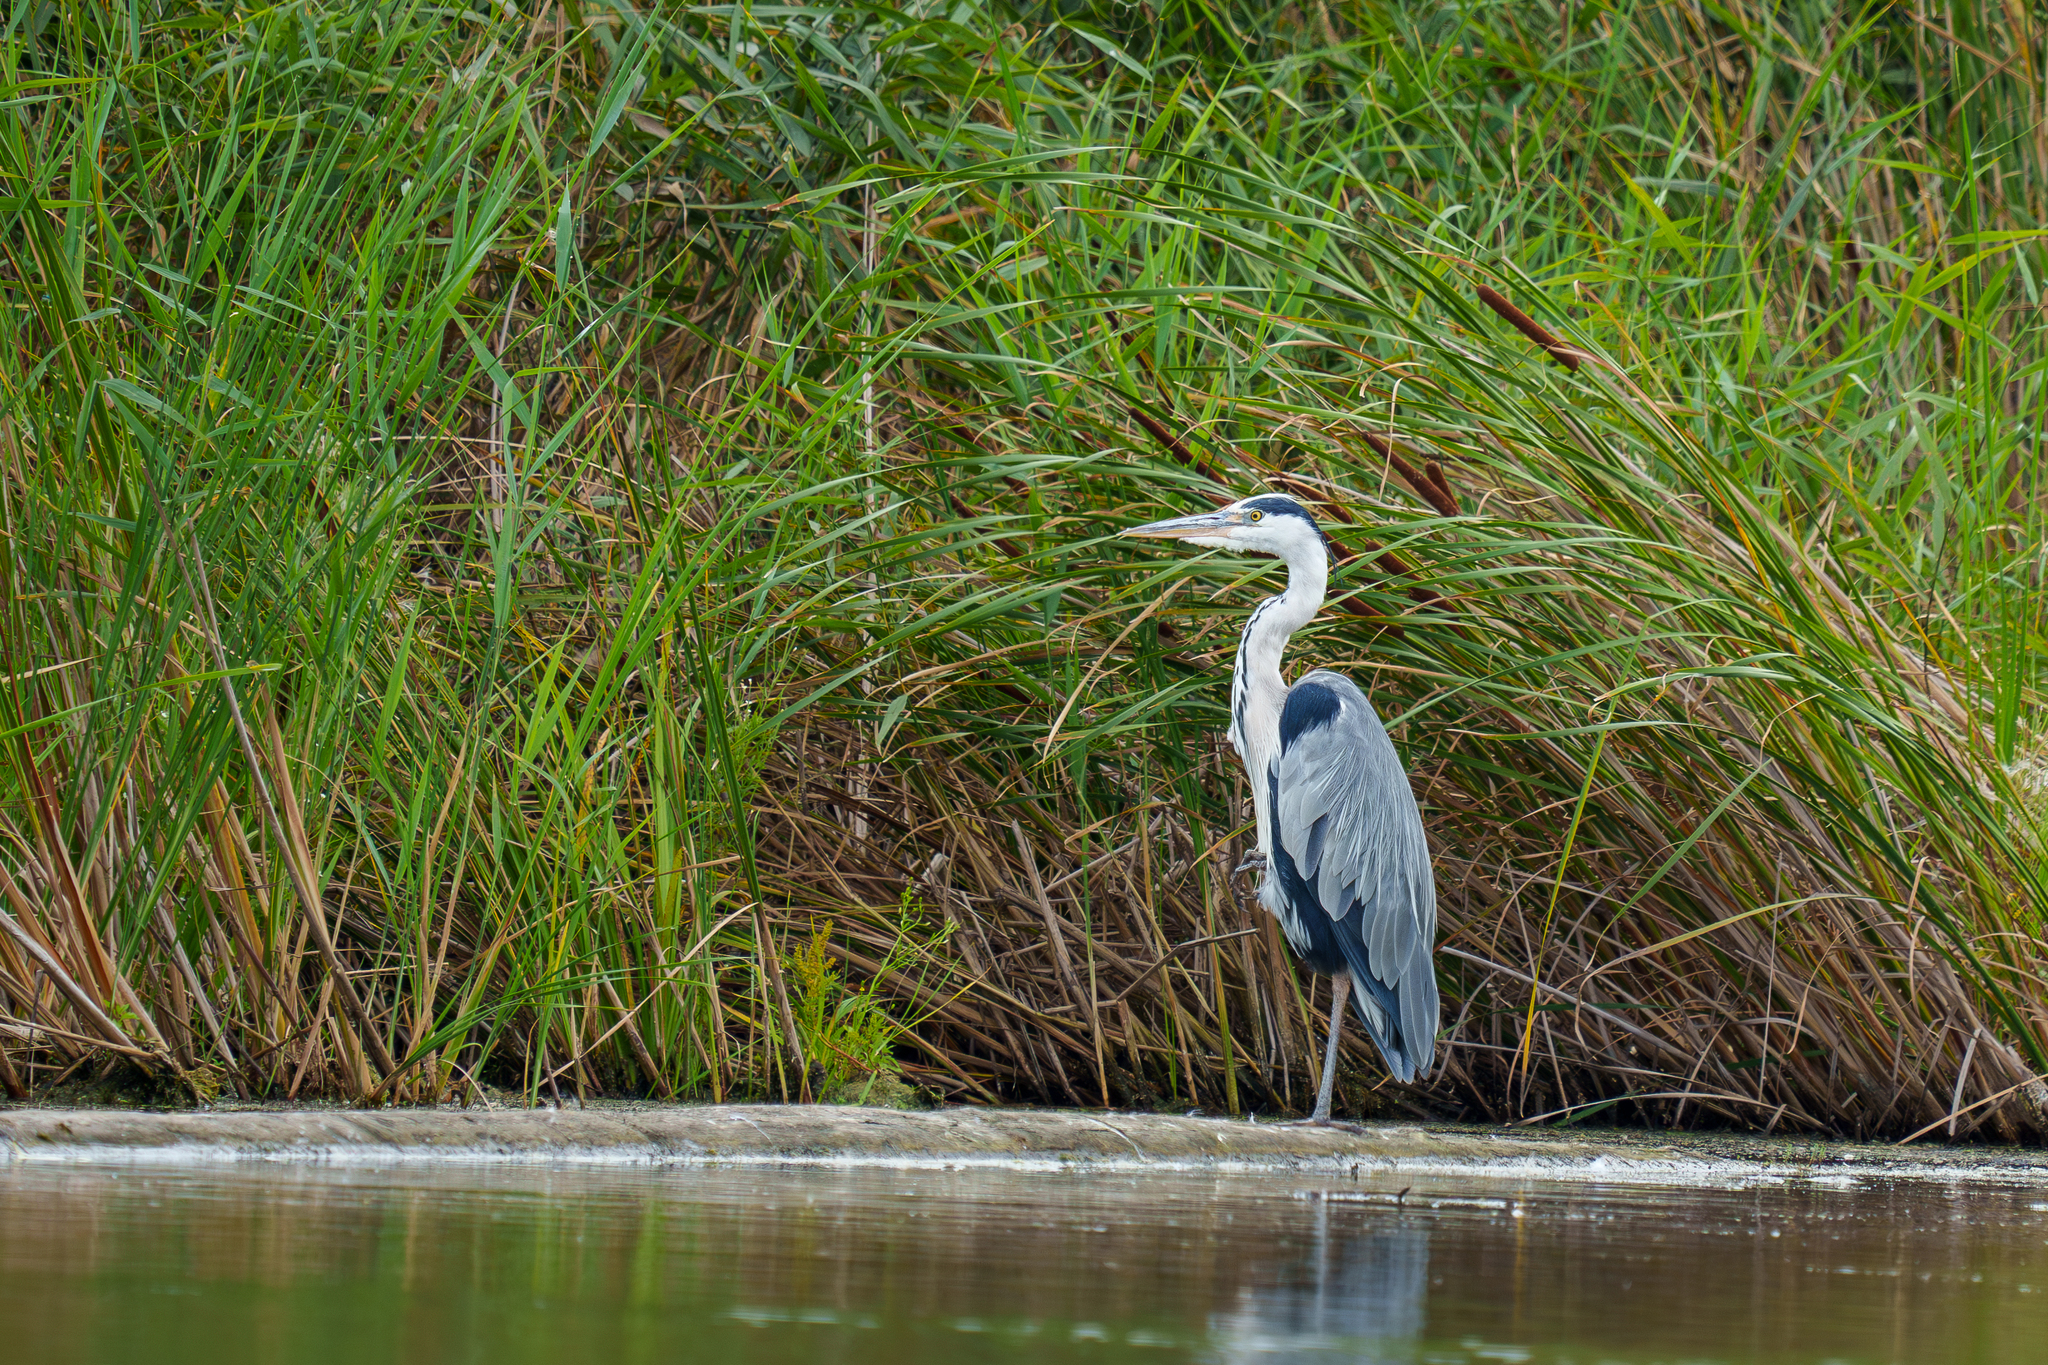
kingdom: Animalia
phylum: Chordata
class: Aves
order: Pelecaniformes
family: Ardeidae
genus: Ardea
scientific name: Ardea cinerea
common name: Grey heron
